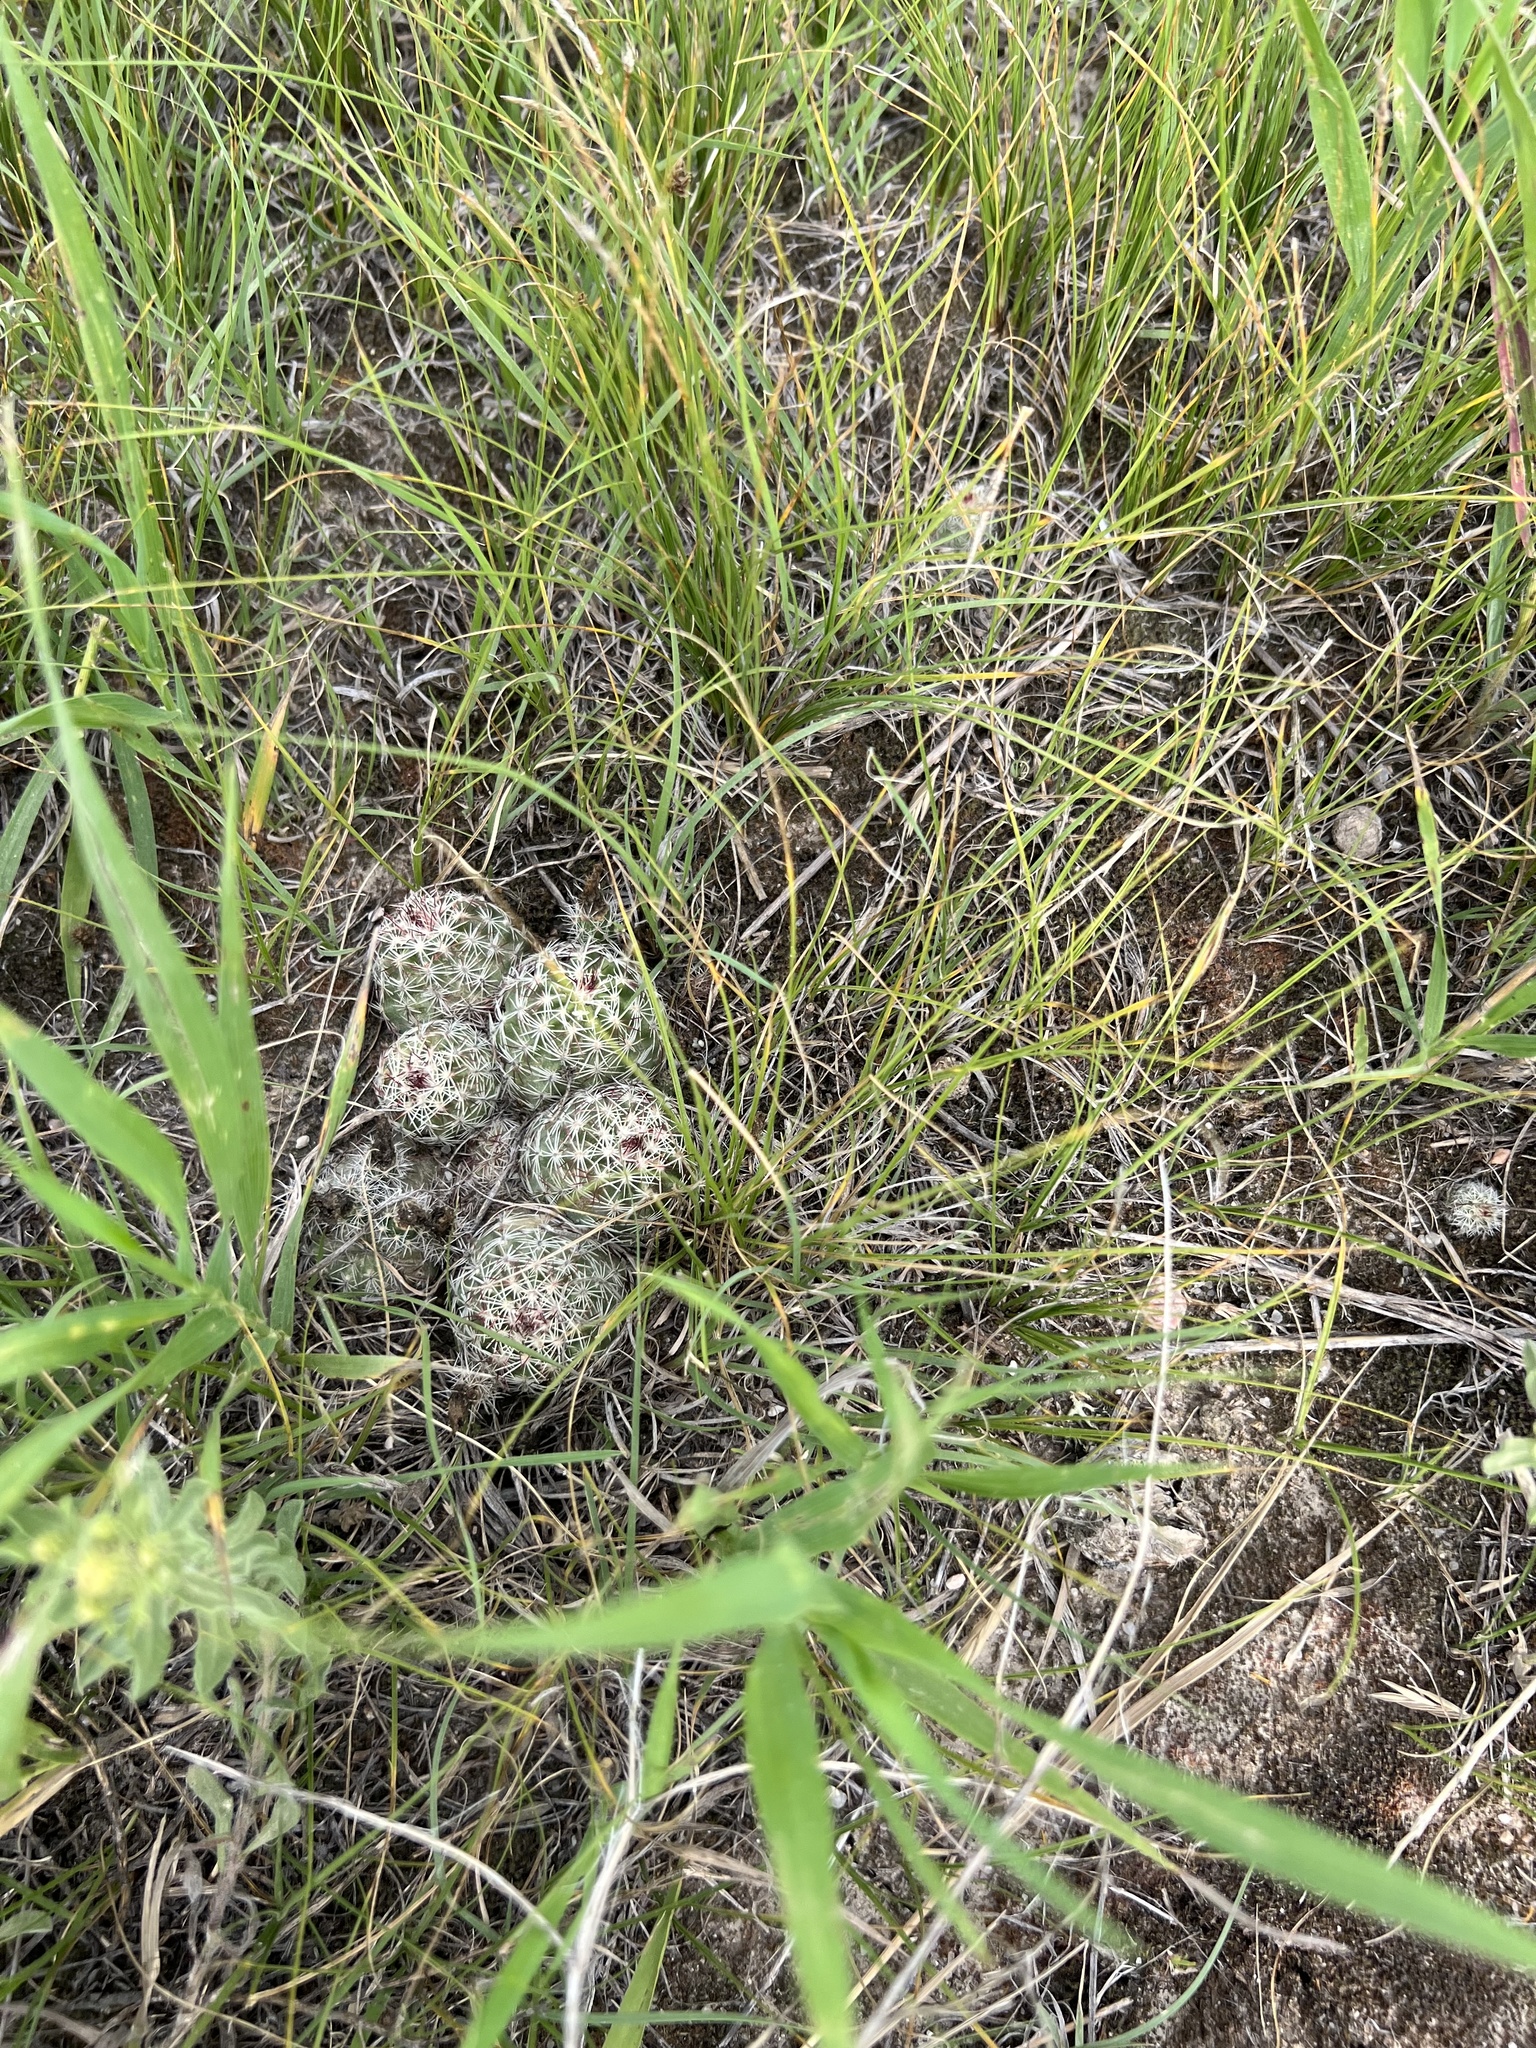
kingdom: Plantae
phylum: Tracheophyta
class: Magnoliopsida
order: Caryophyllales
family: Cactaceae
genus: Echinocereus
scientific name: Echinocereus viridiflorus
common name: Nylon hedgehog cactus
